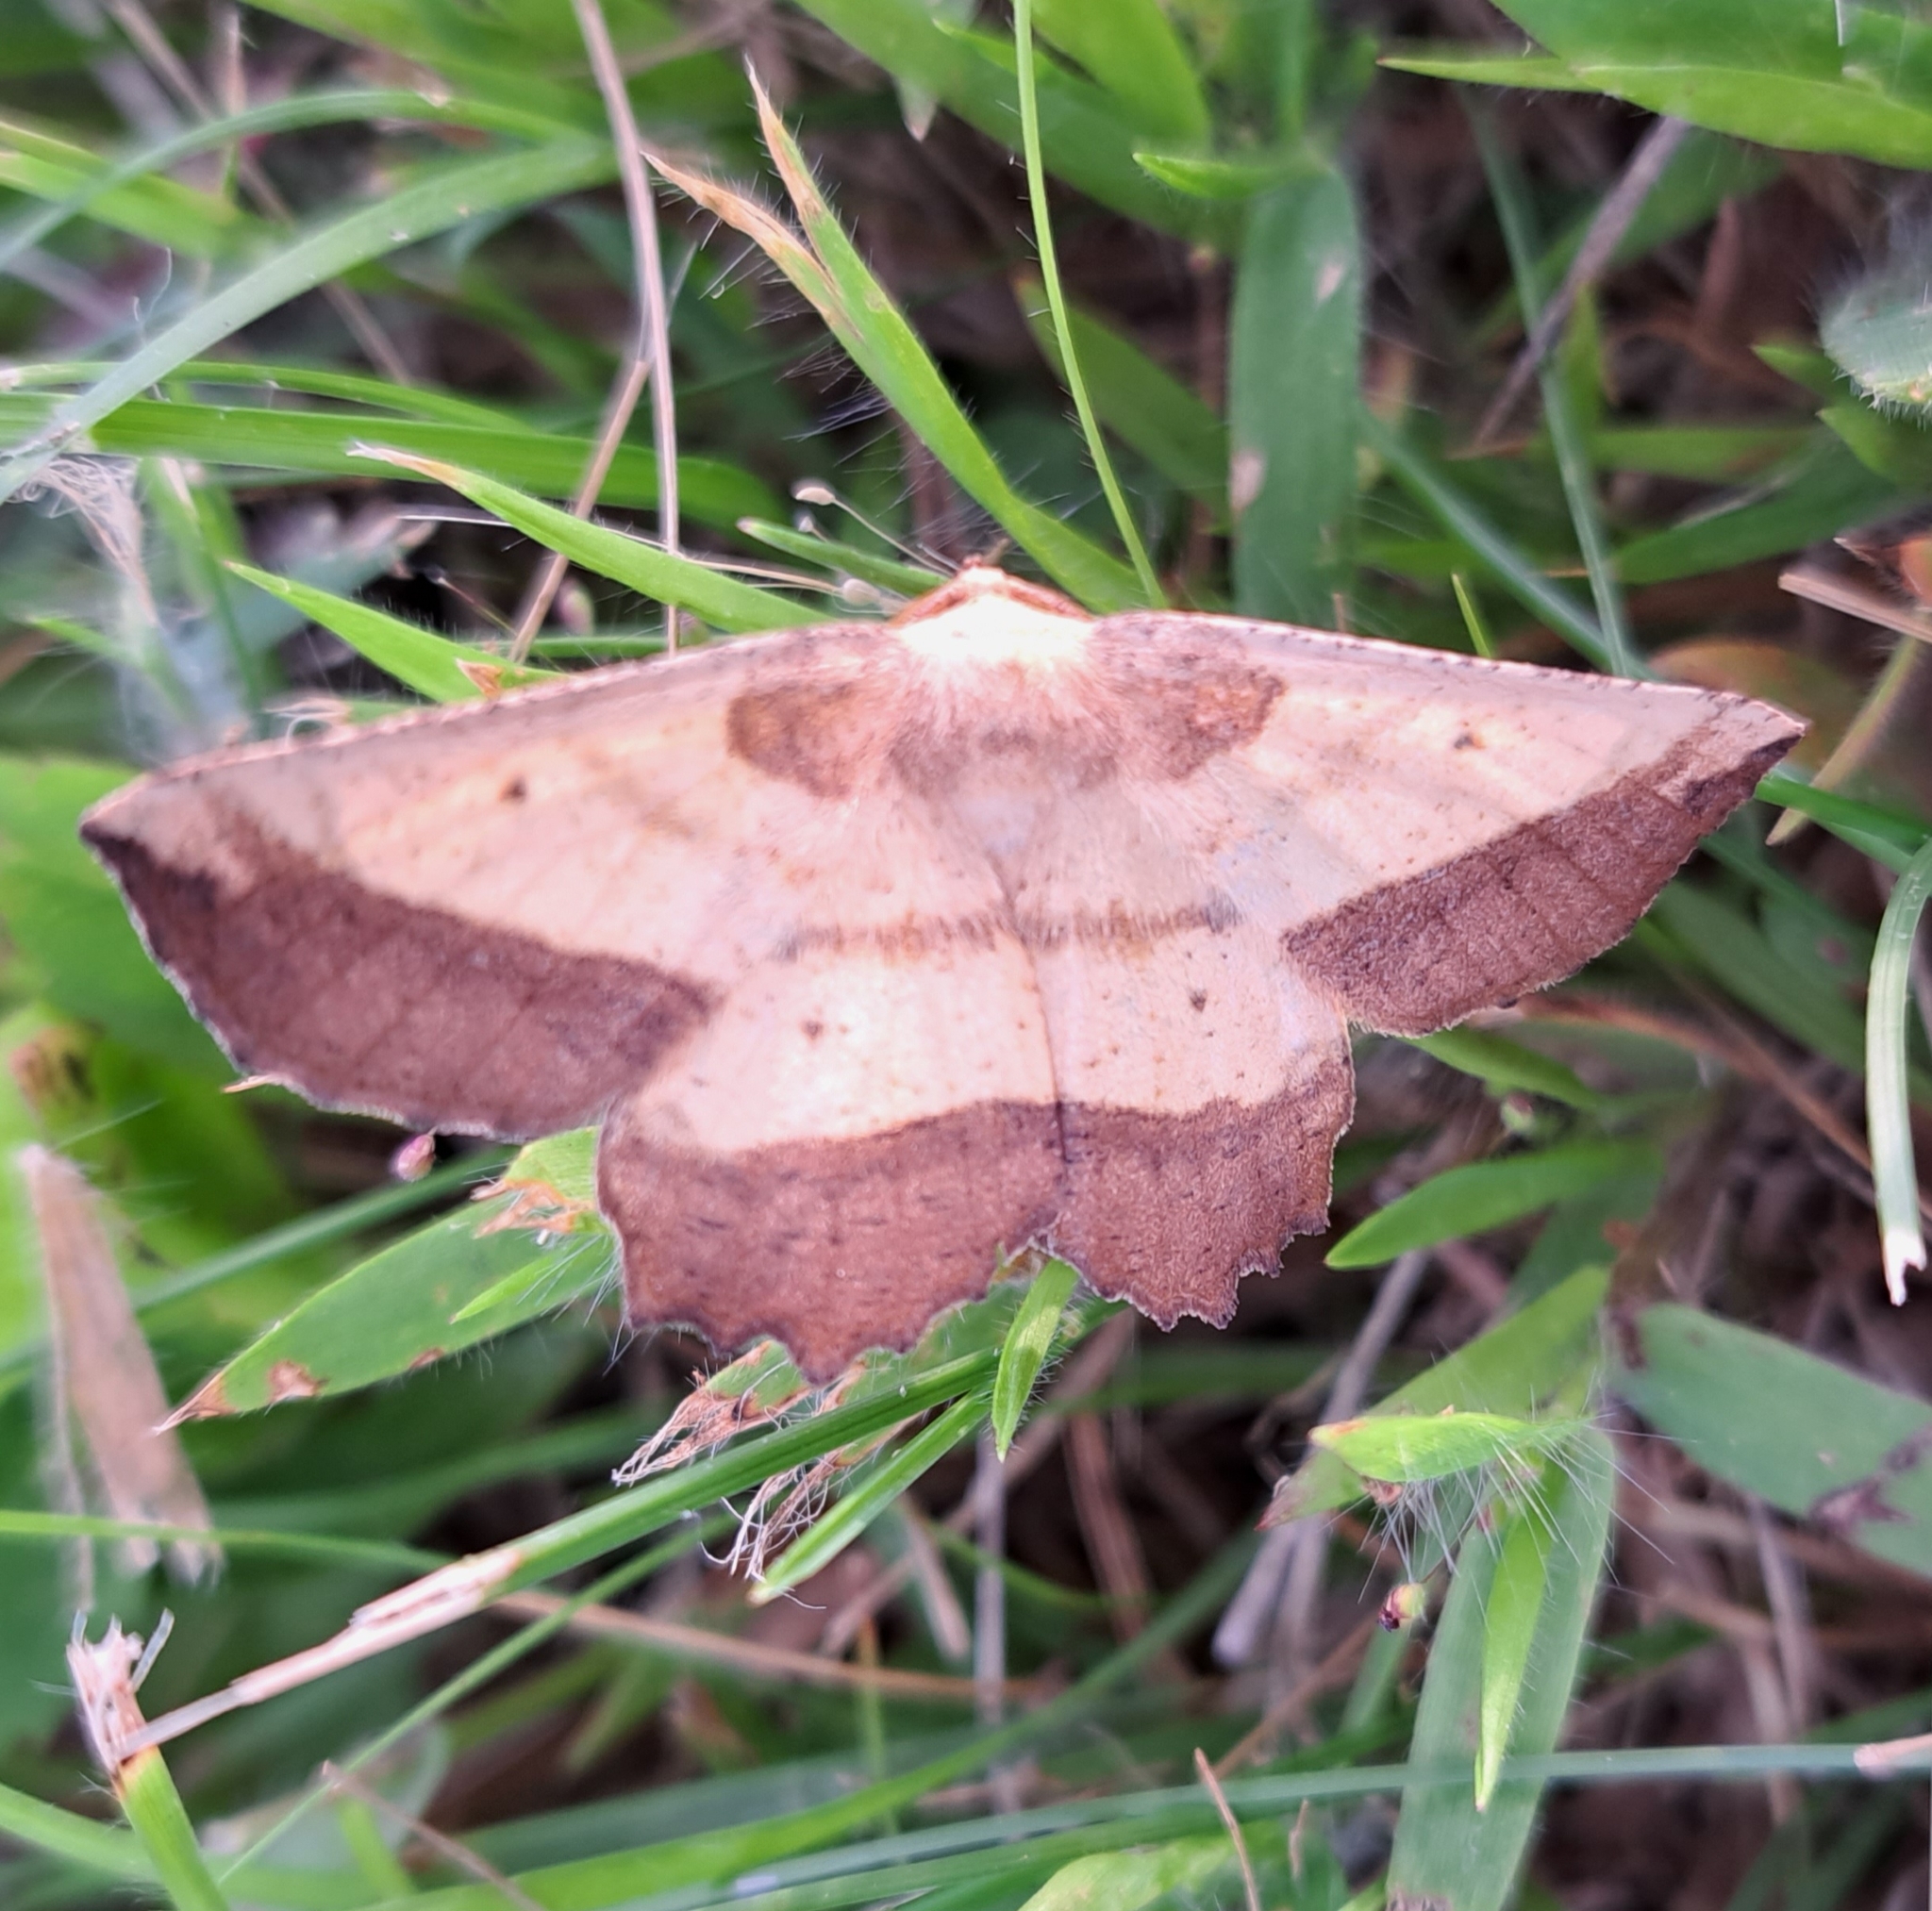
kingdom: Animalia
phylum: Arthropoda
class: Insecta
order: Lepidoptera
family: Geometridae
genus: Euchlaena
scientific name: Euchlaena serrata
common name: Saw wing
